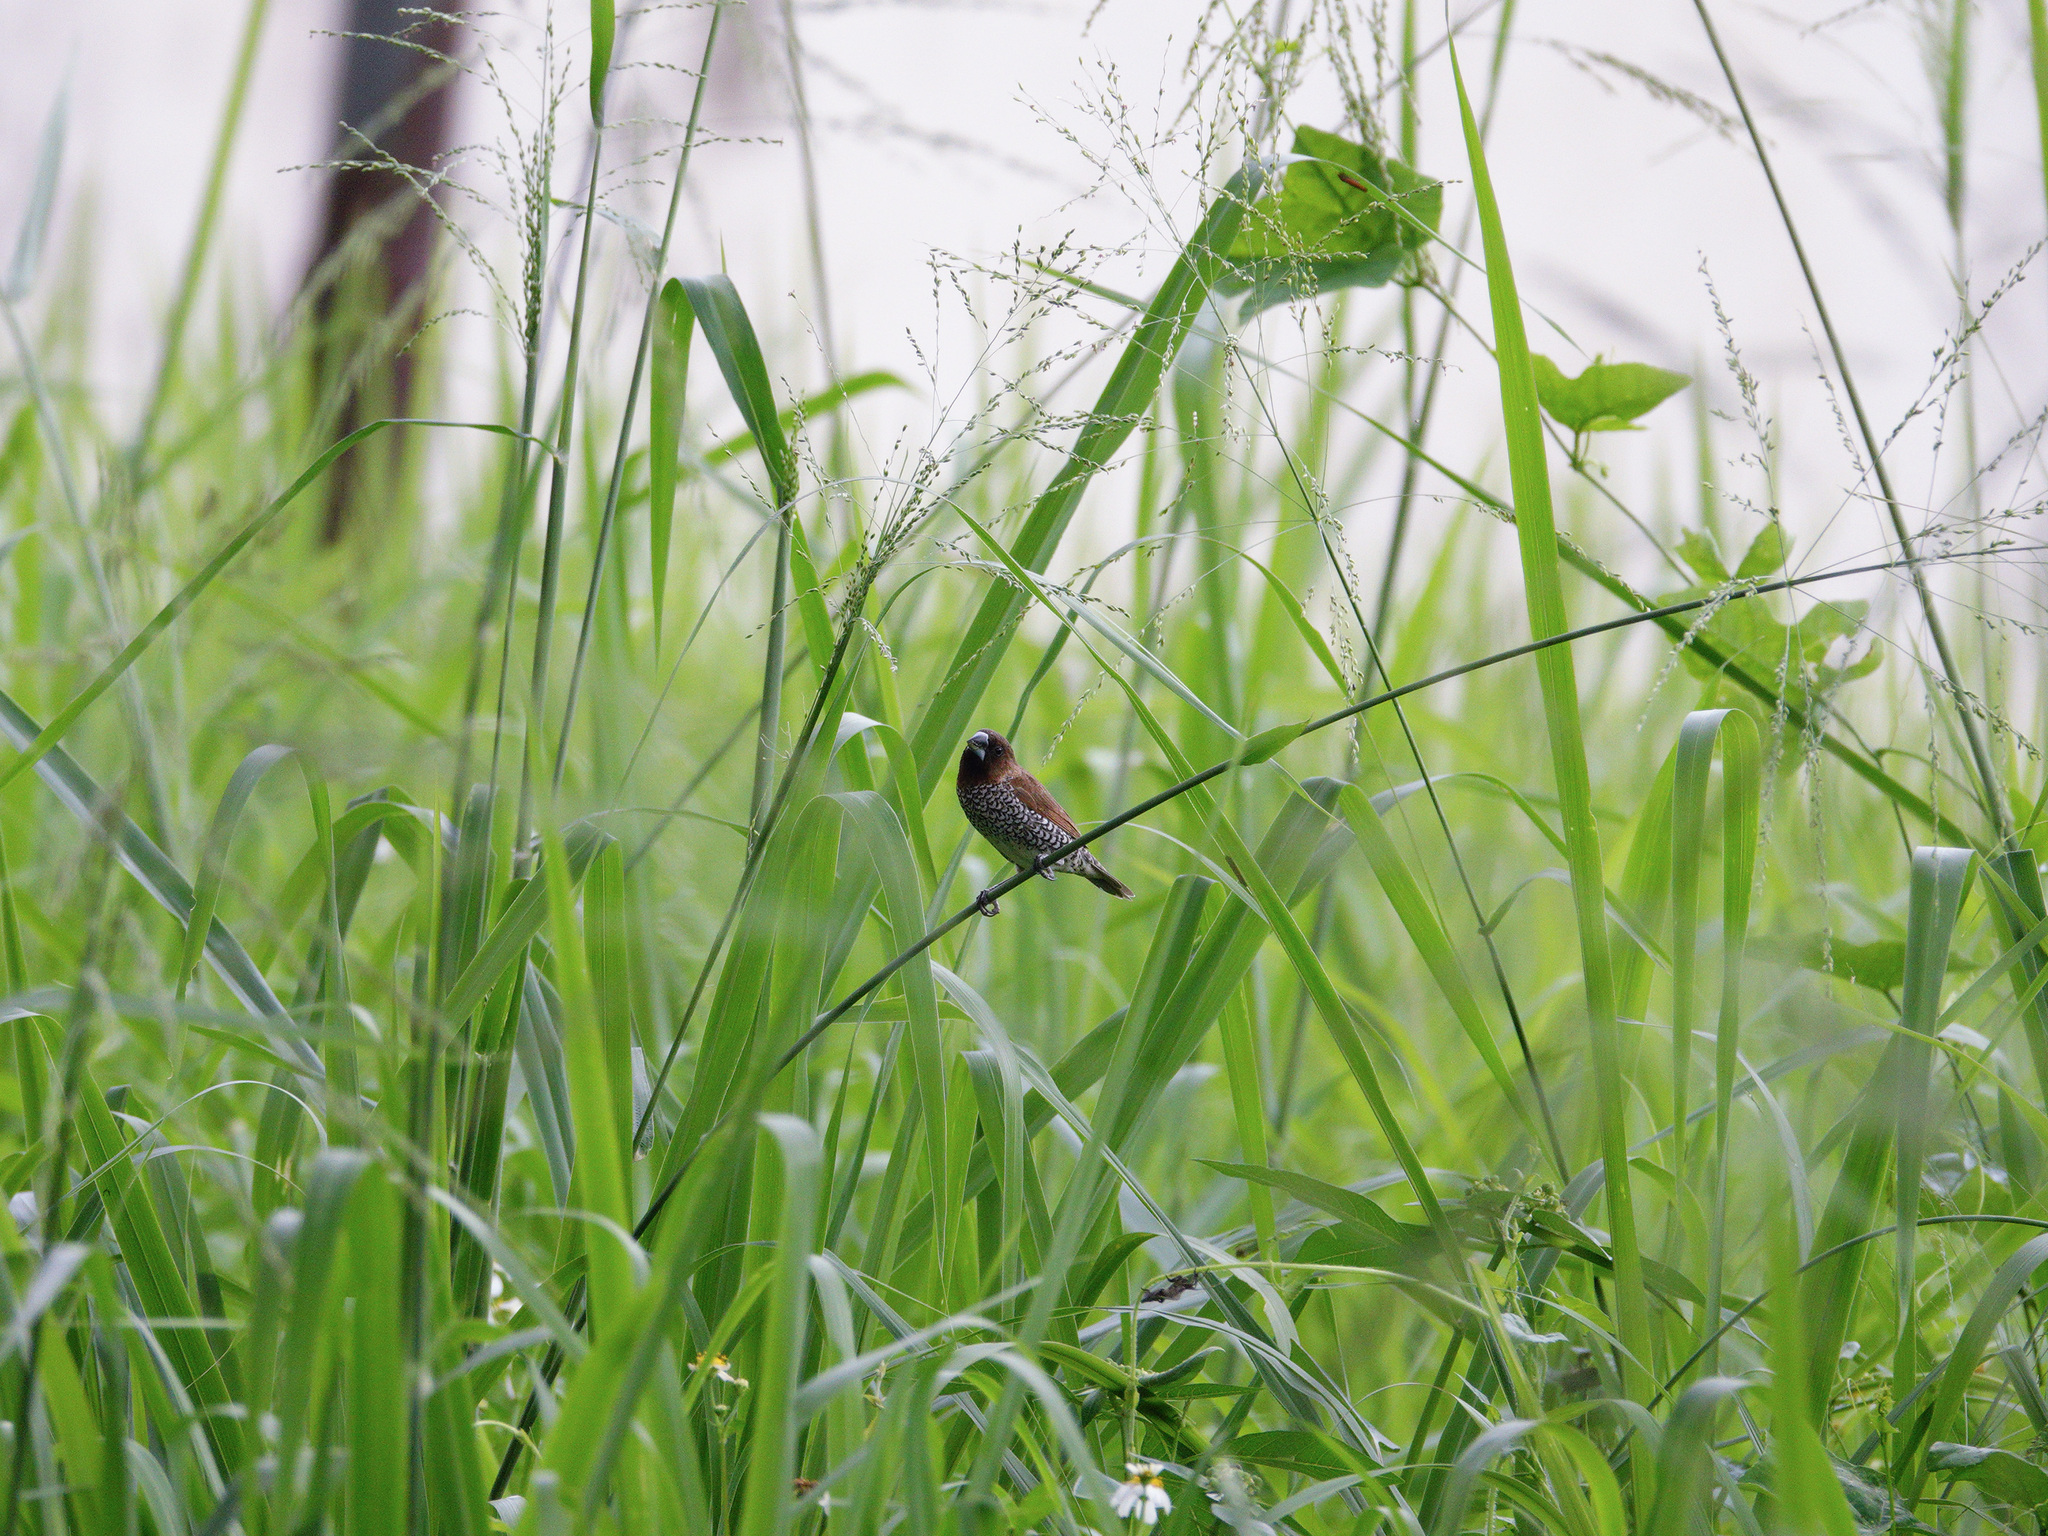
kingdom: Animalia
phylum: Chordata
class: Aves
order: Passeriformes
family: Estrildidae
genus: Lonchura
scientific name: Lonchura punctulata
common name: Scaly-breasted munia
